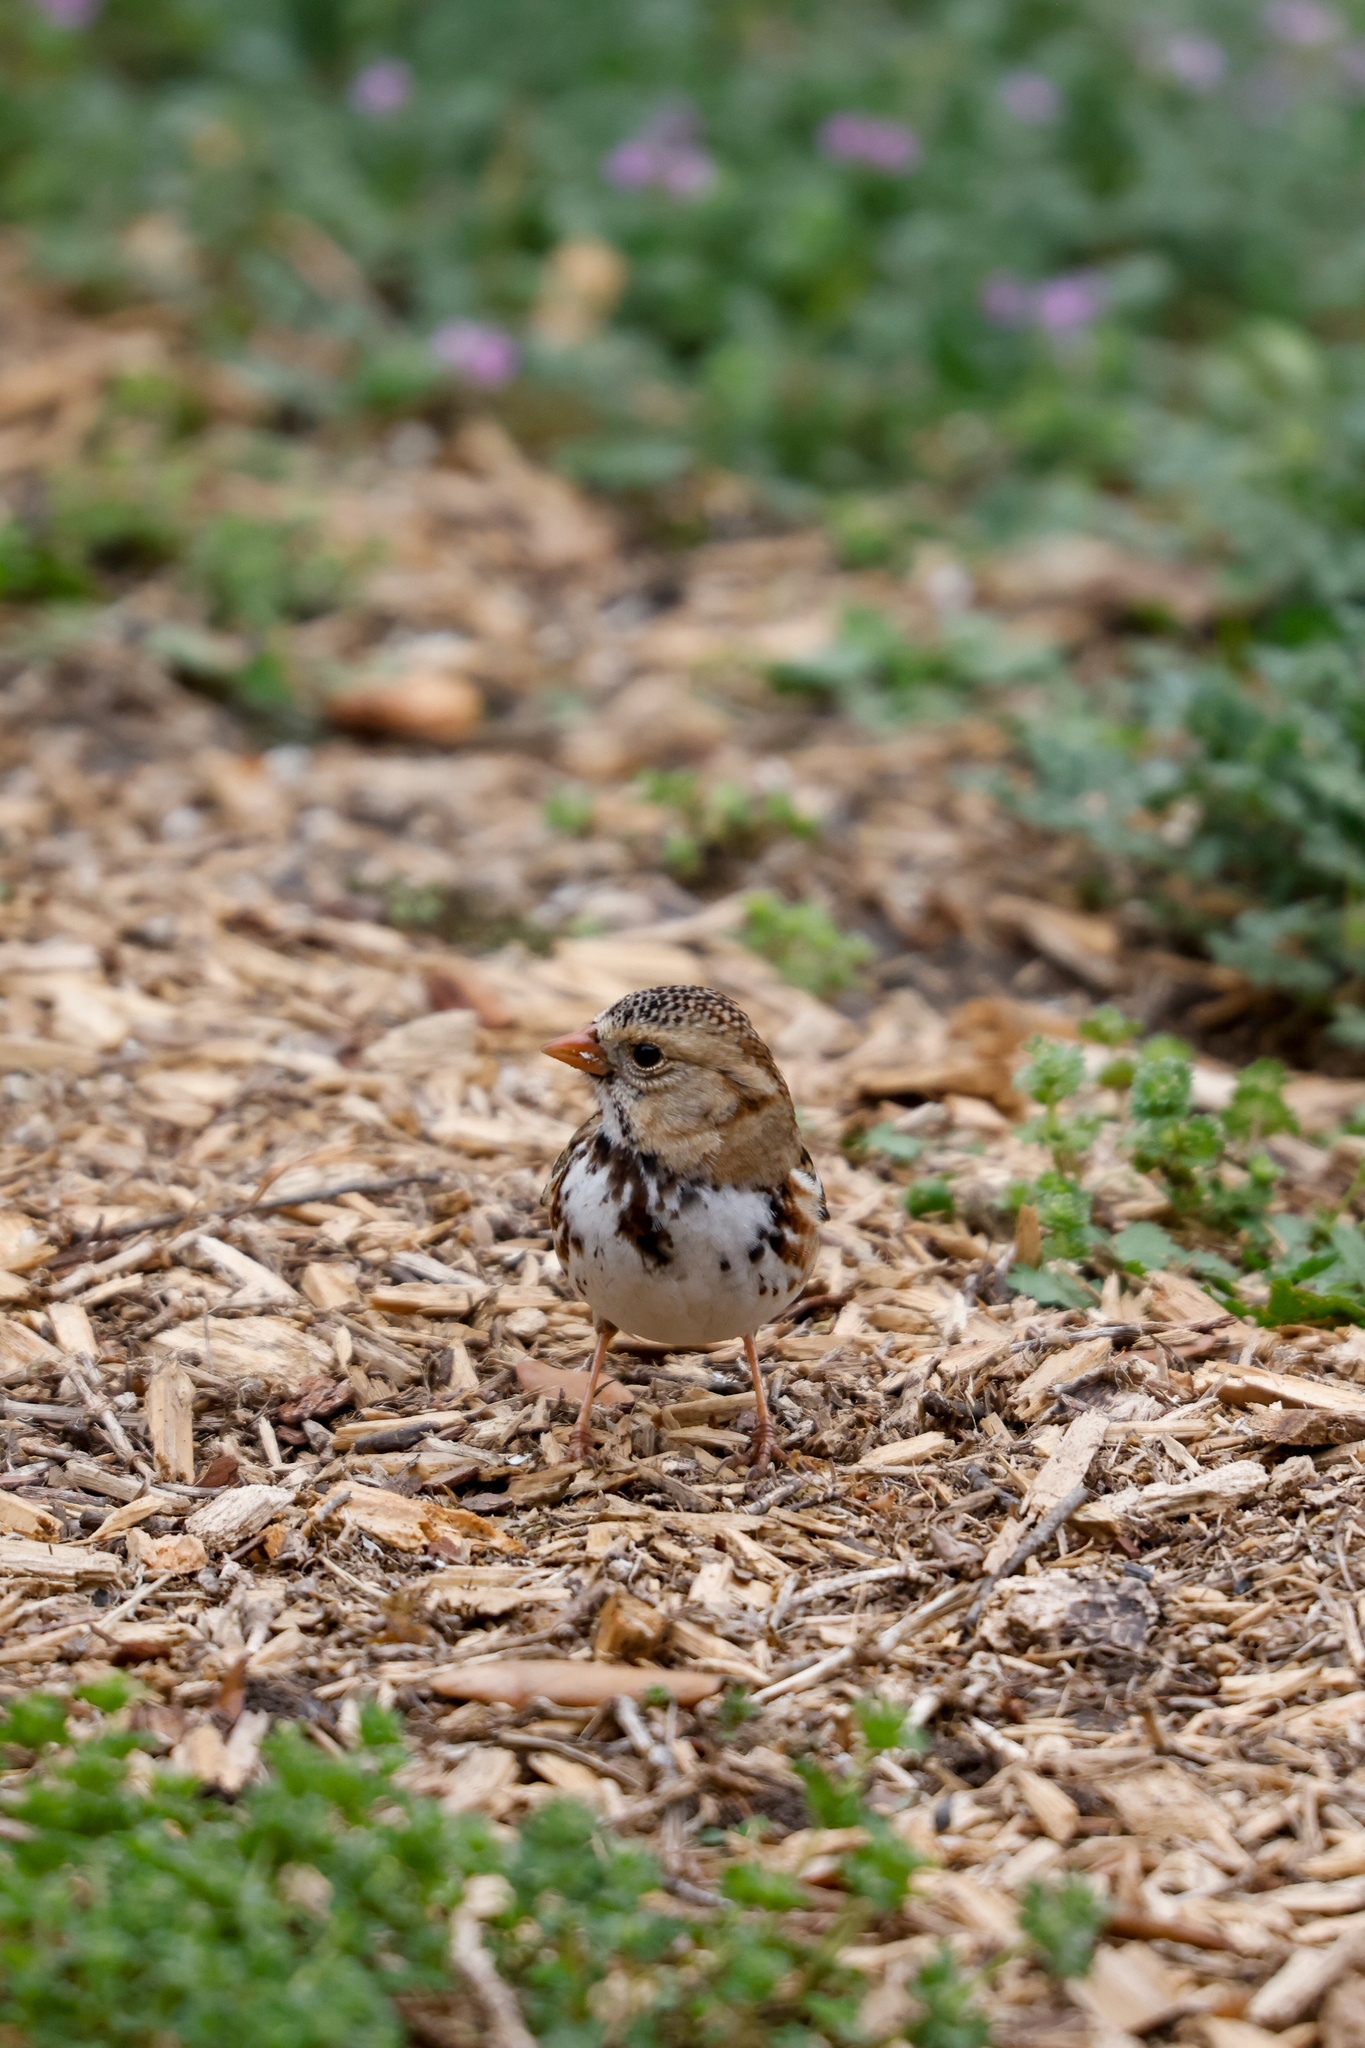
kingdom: Animalia
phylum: Chordata
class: Aves
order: Passeriformes
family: Passerellidae
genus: Zonotrichia
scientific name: Zonotrichia querula
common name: Harris's sparrow
